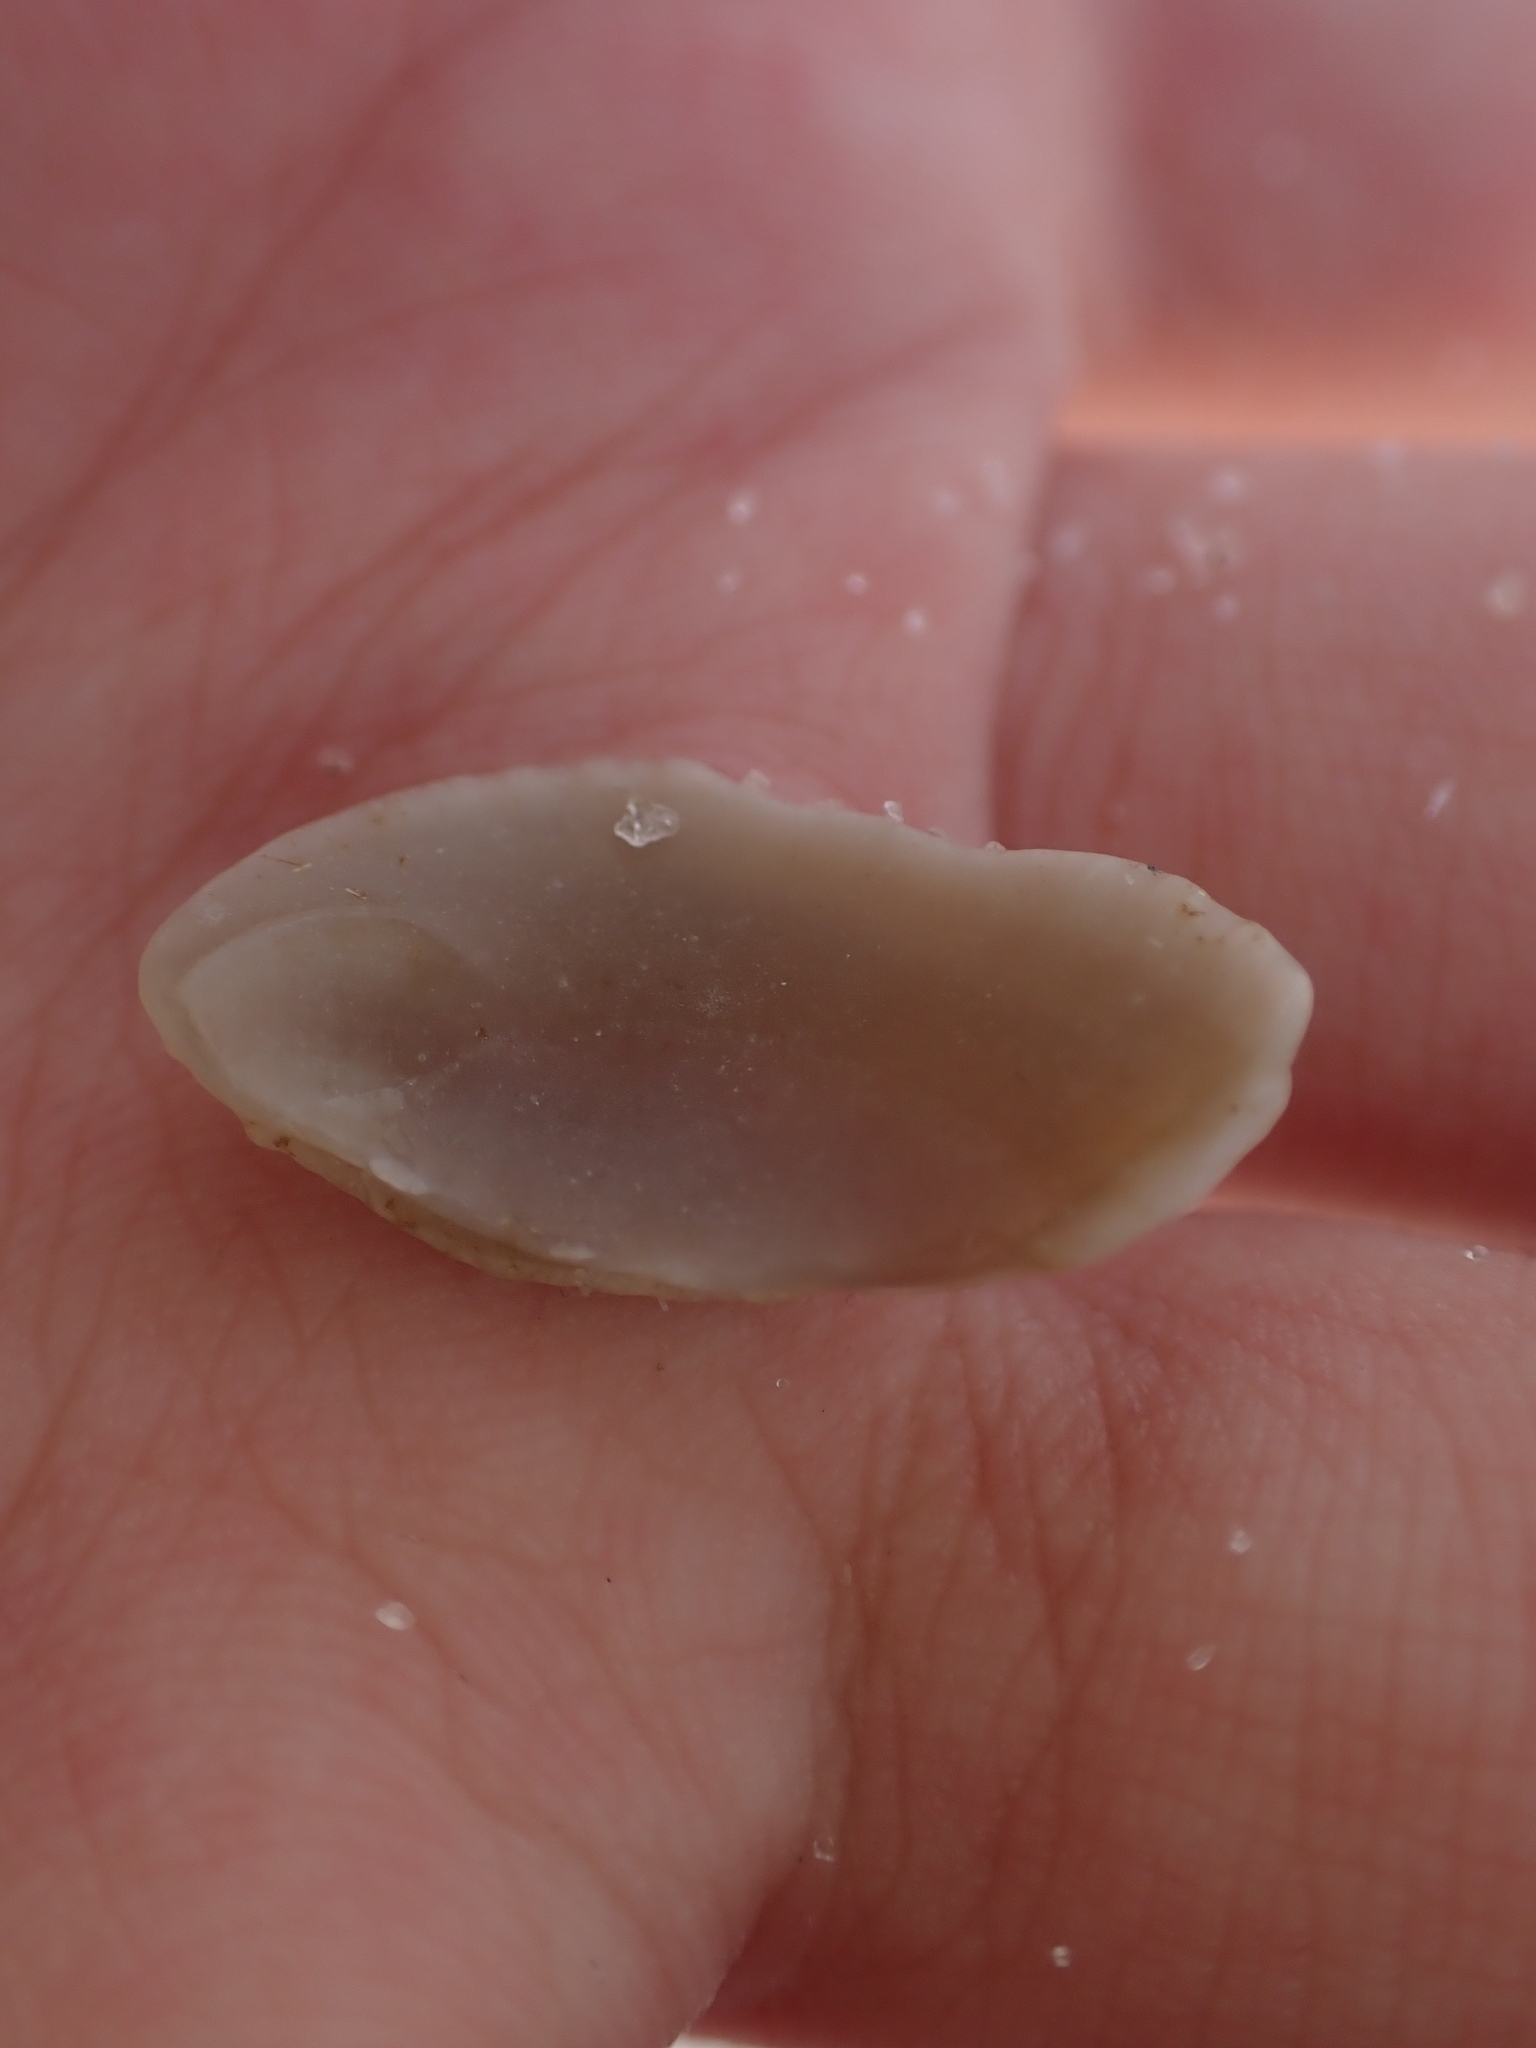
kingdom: Animalia
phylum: Mollusca
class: Bivalvia
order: Venerida
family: Veneridae
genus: Chione
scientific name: Chione elevata
